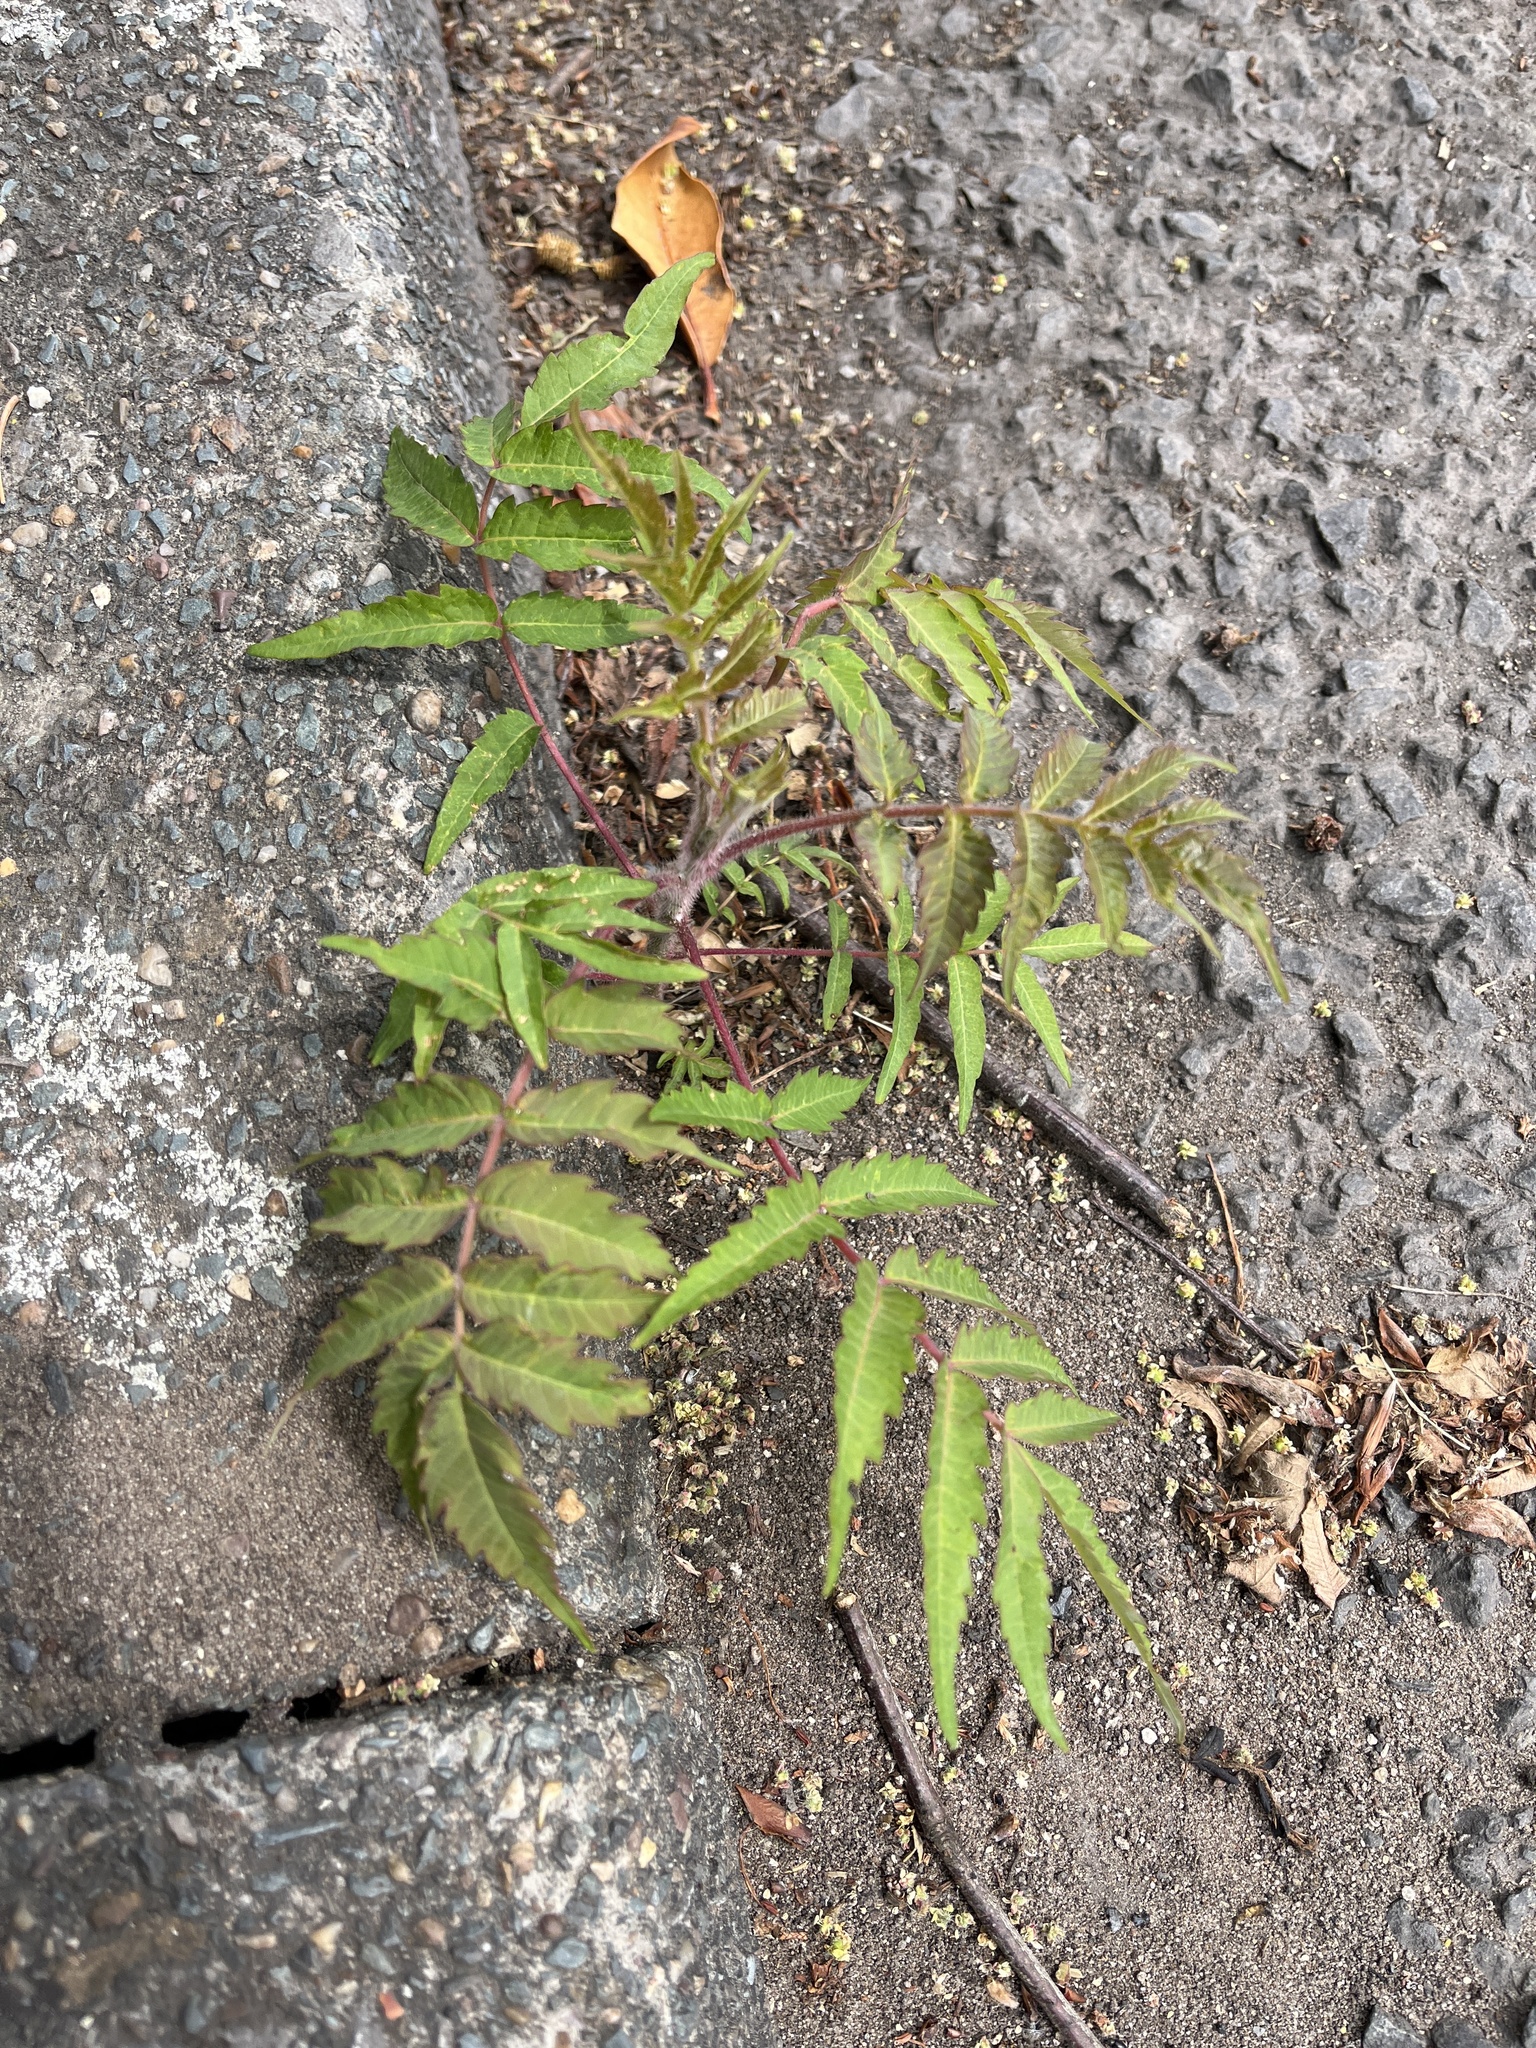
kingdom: Plantae
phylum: Tracheophyta
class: Magnoliopsida
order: Sapindales
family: Anacardiaceae
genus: Rhus
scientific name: Rhus typhina
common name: Staghorn sumac
